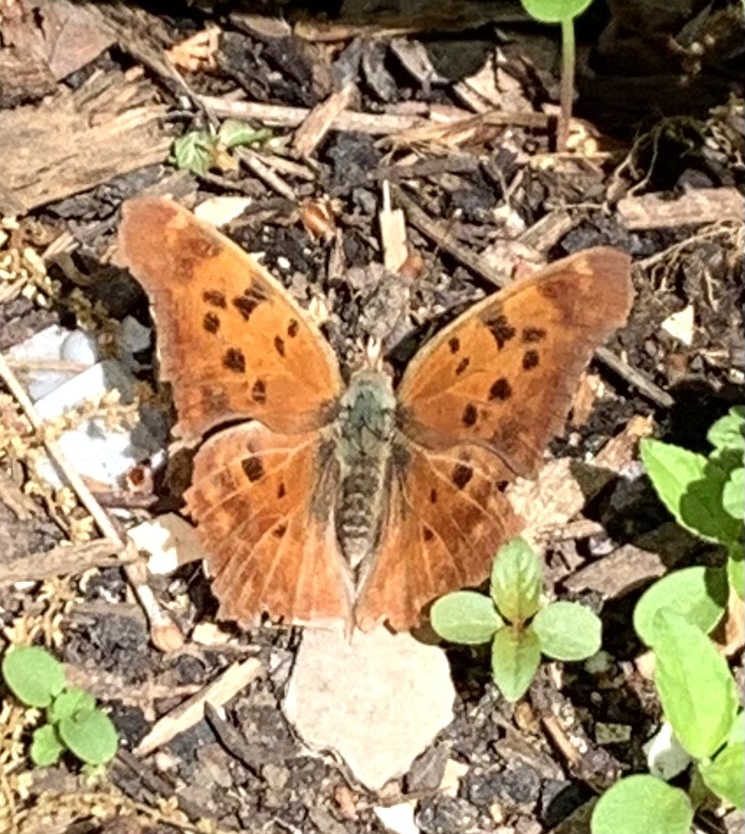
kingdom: Animalia
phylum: Arthropoda
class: Insecta
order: Lepidoptera
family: Nymphalidae
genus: Polygonia
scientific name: Polygonia interrogationis
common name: Question mark
